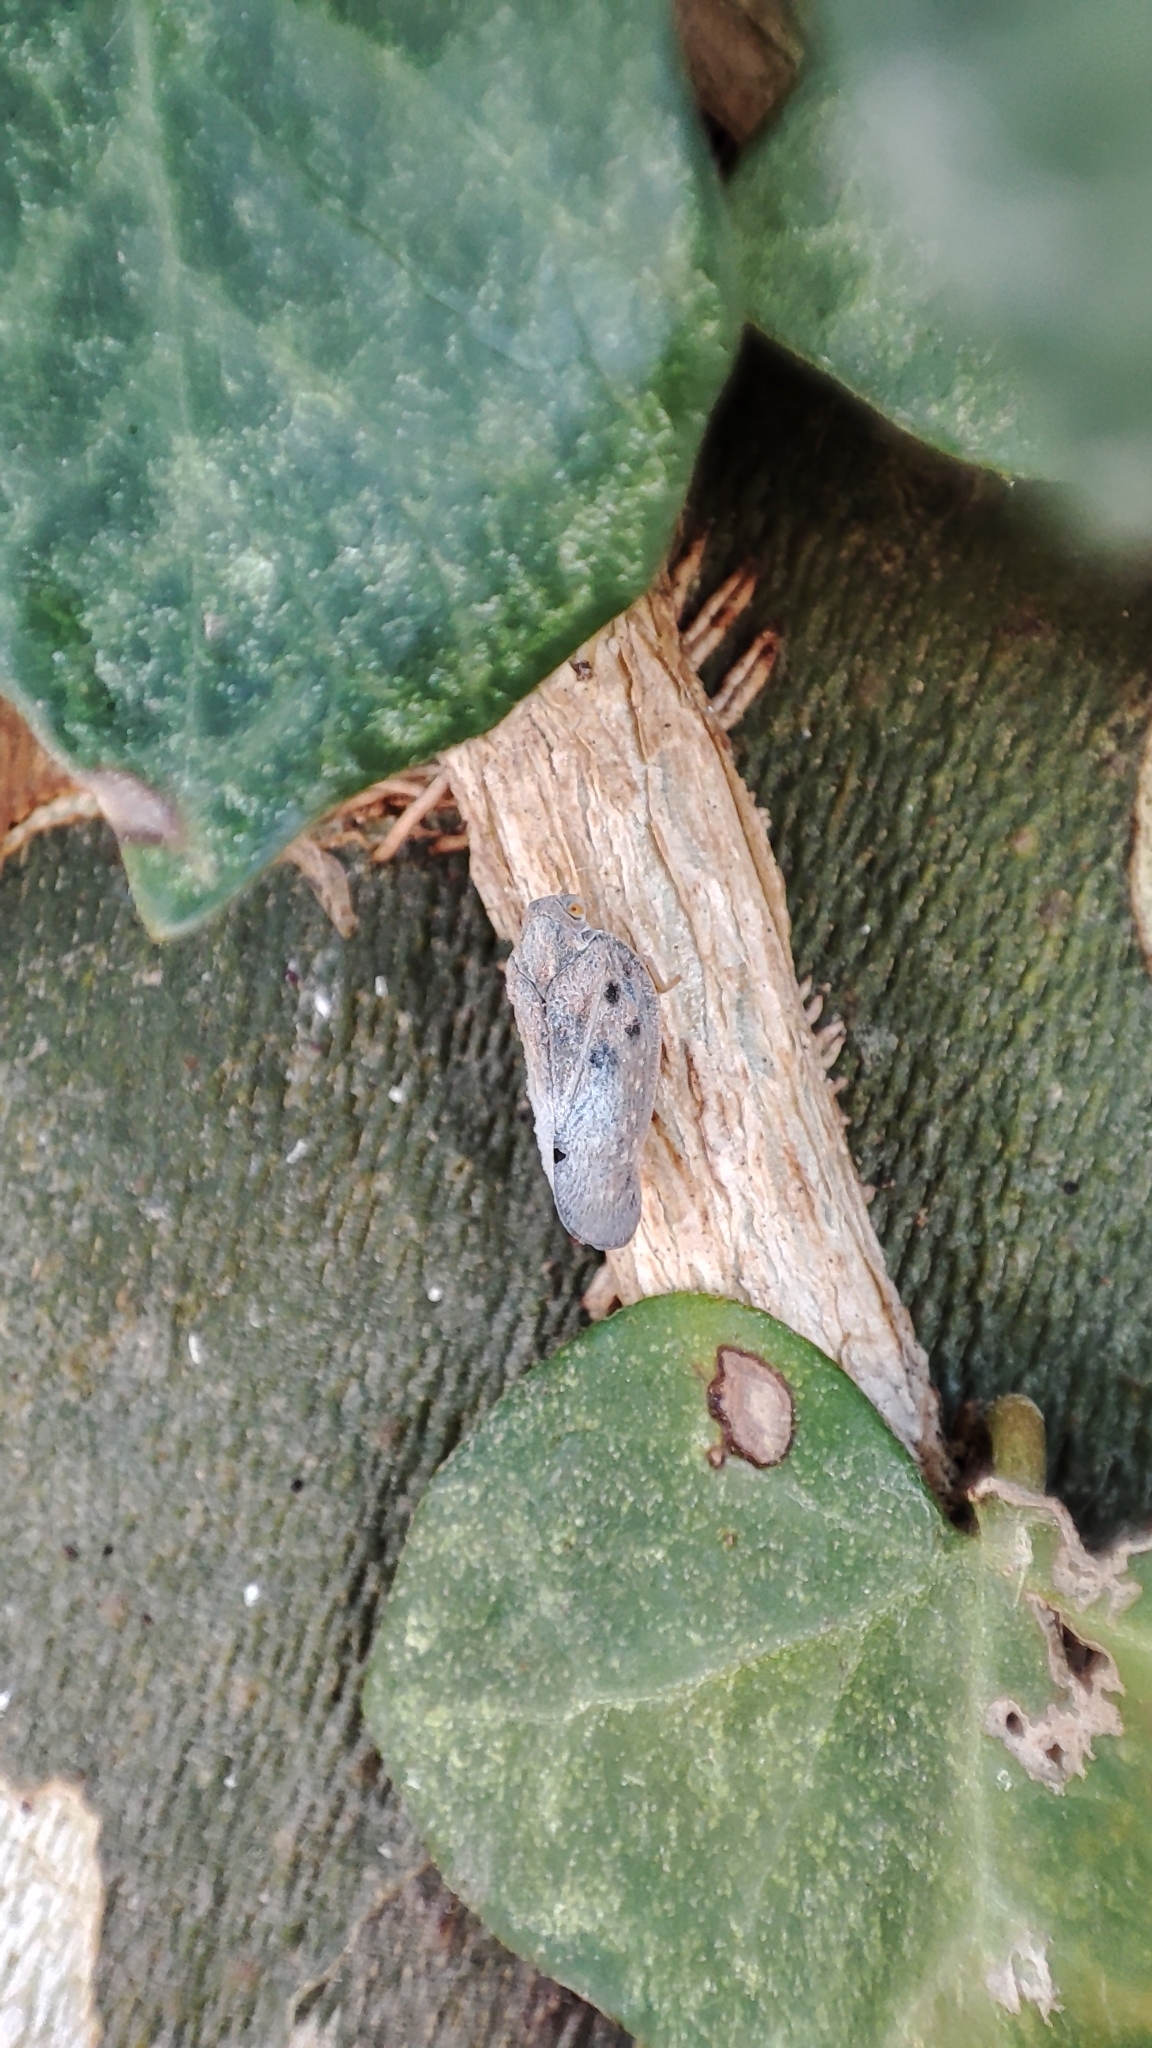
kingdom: Animalia
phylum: Arthropoda
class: Insecta
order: Hemiptera
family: Flatidae
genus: Metcalfa
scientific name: Metcalfa pruinosa
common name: Citrus flatid planthopper
